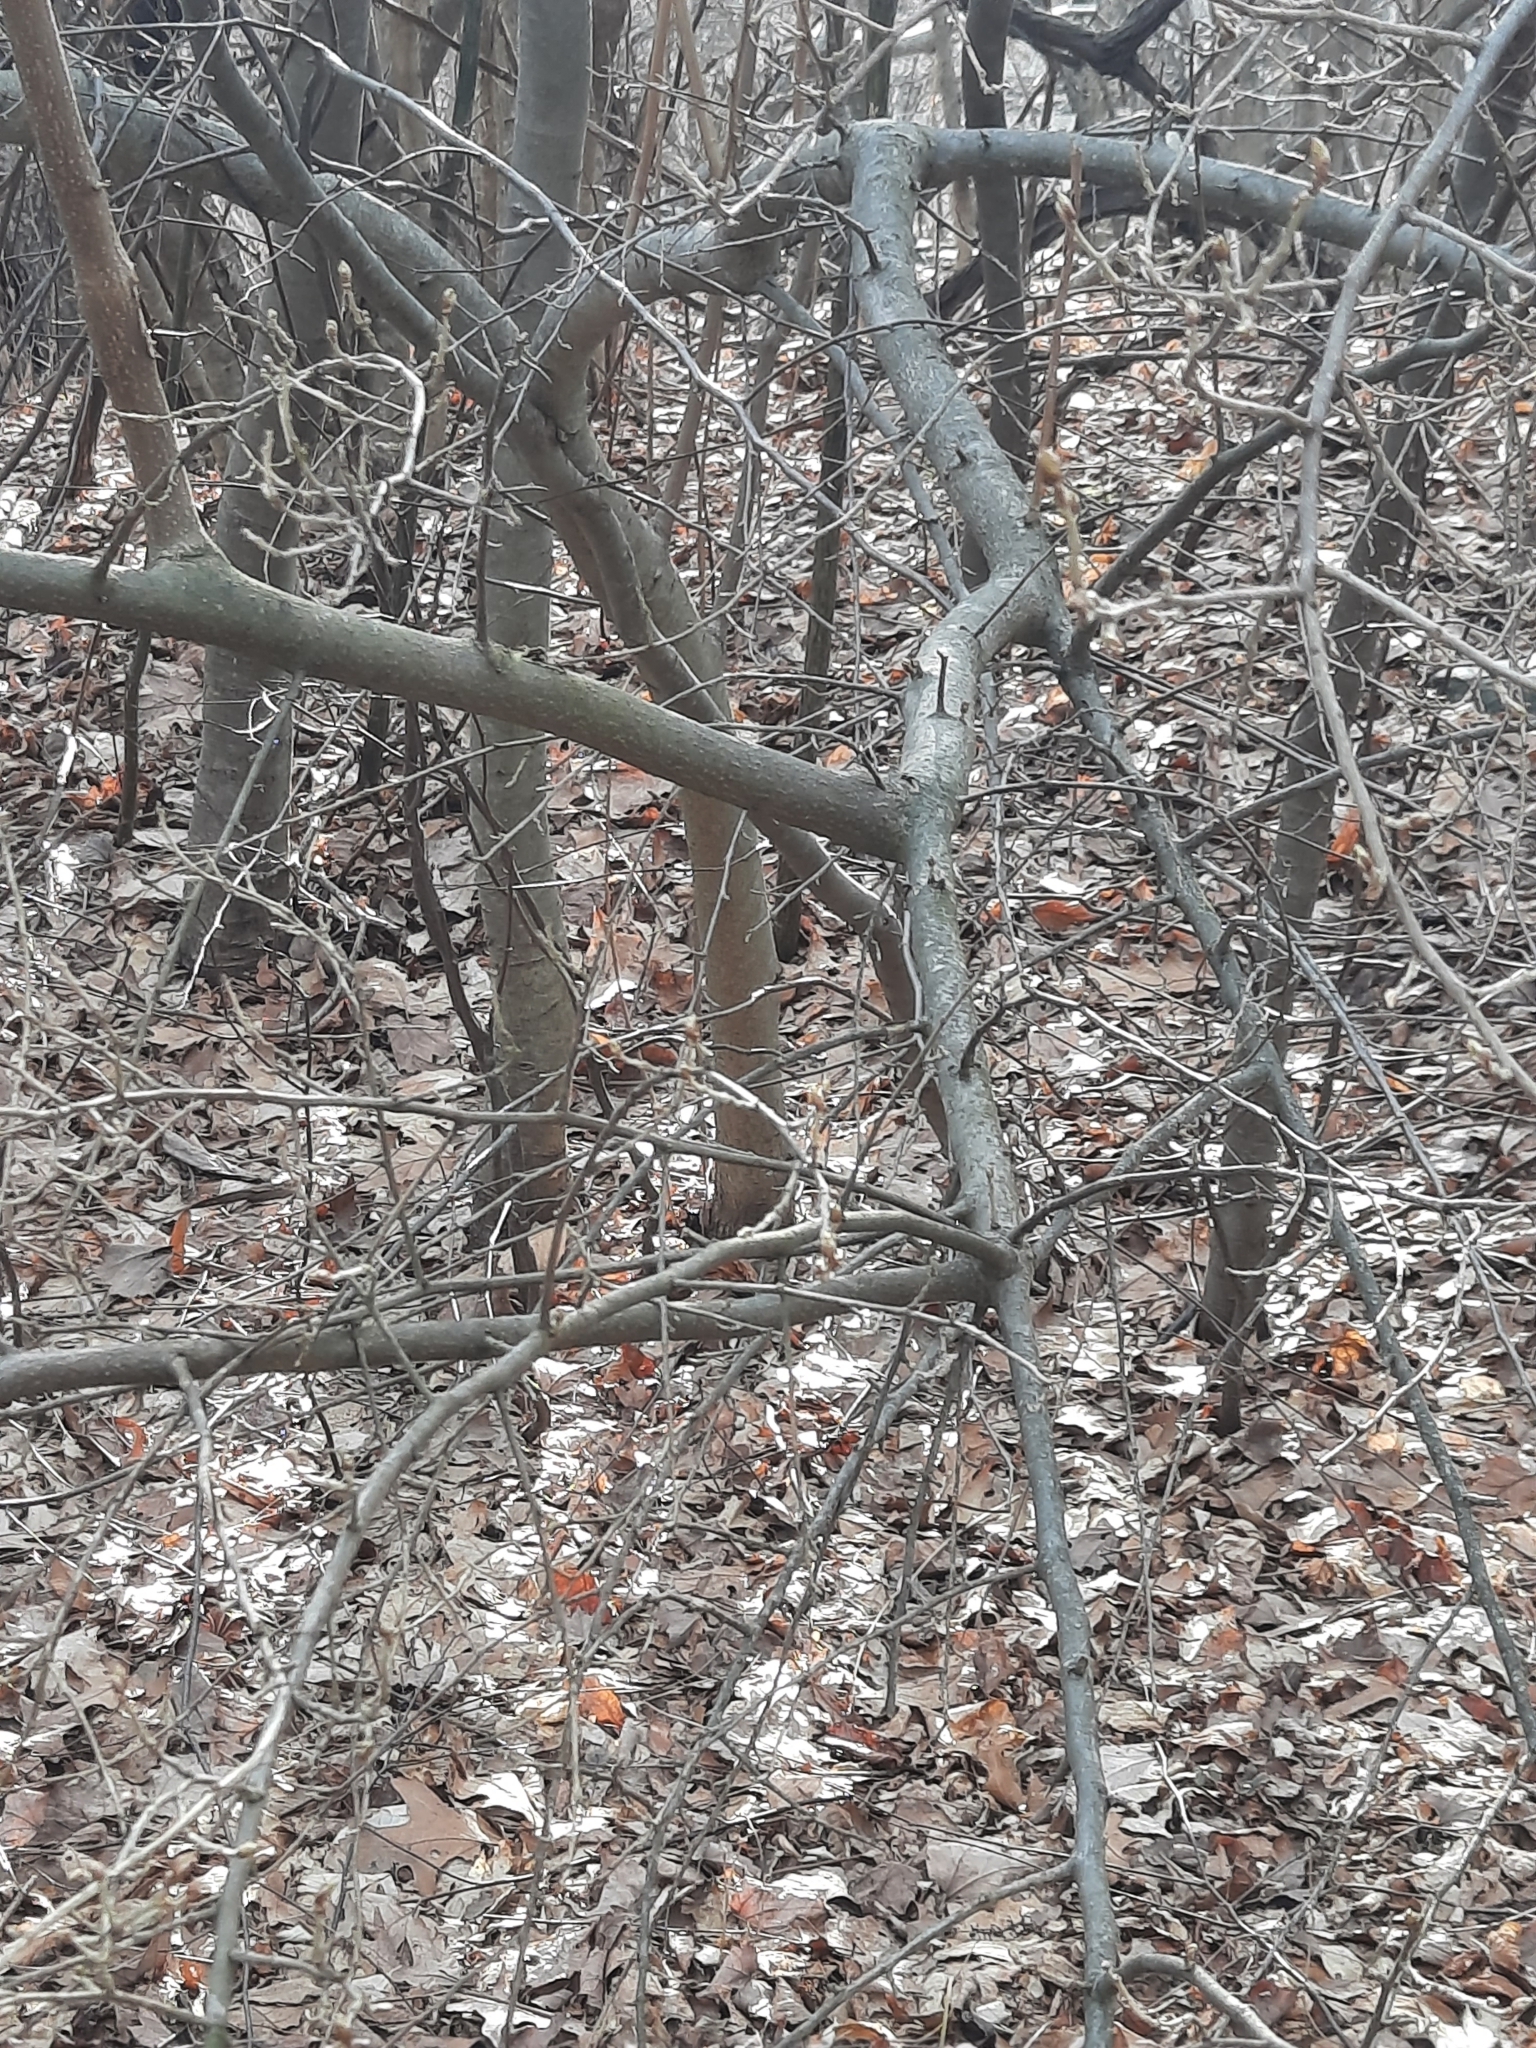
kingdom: Plantae
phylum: Tracheophyta
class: Magnoliopsida
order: Rosales
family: Elaeagnaceae
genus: Elaeagnus
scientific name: Elaeagnus umbellata
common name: Autumn olive
